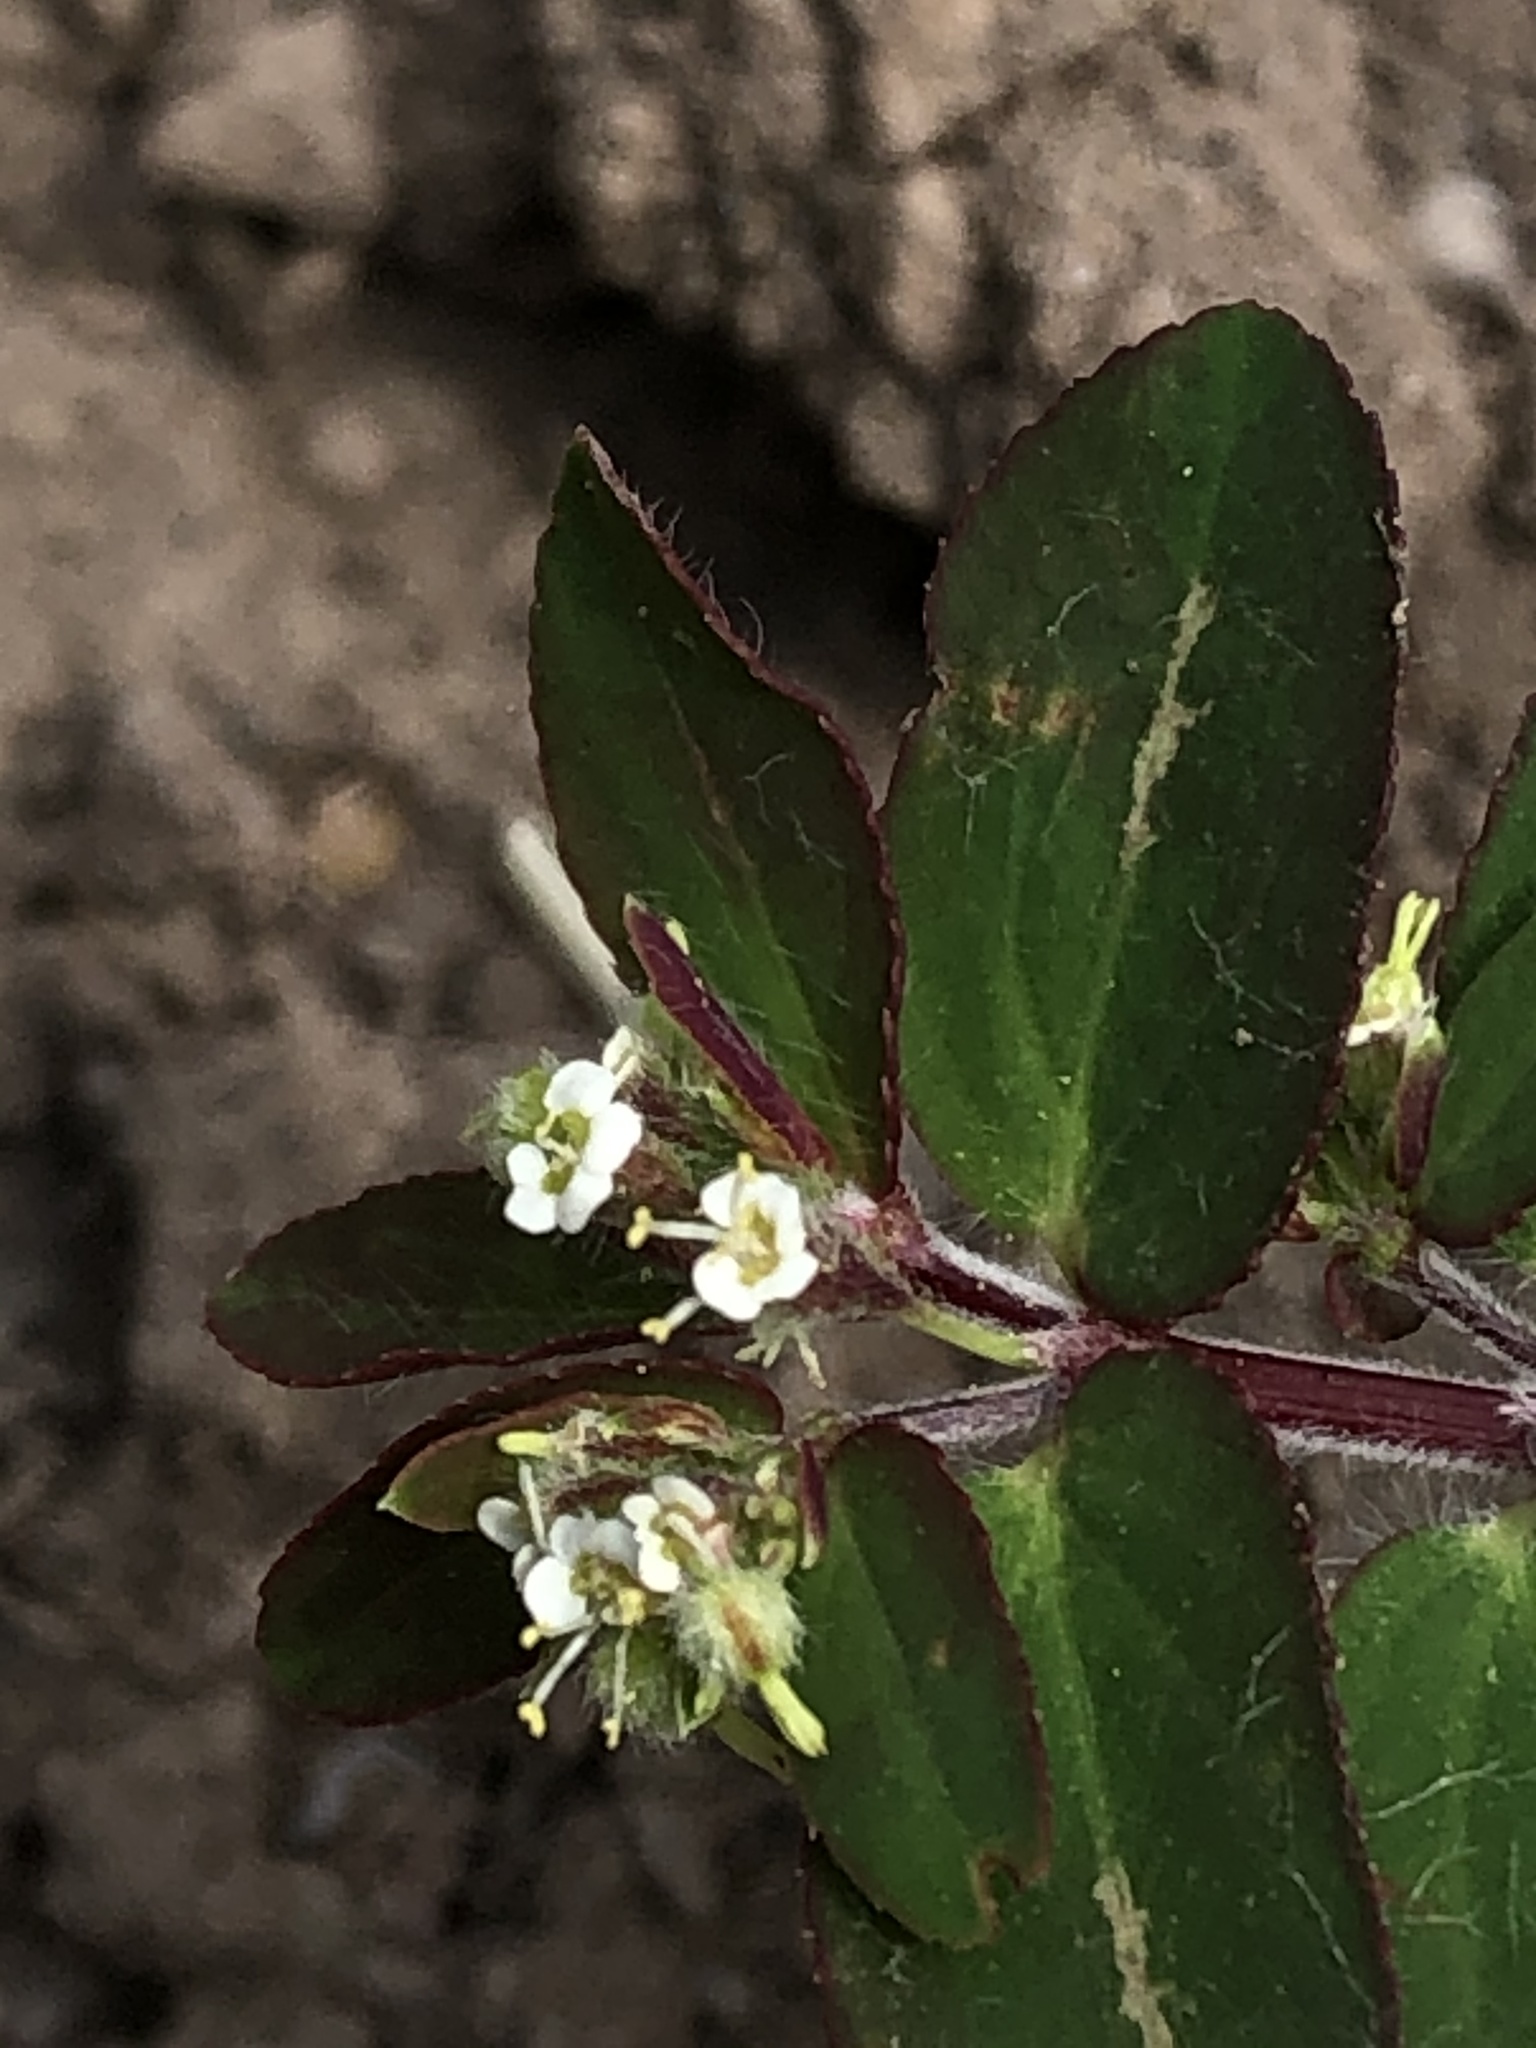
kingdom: Plantae
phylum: Tracheophyta
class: Magnoliopsida
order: Malpighiales
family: Euphorbiaceae
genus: Euphorbia
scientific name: Euphorbia lasiocarpa
